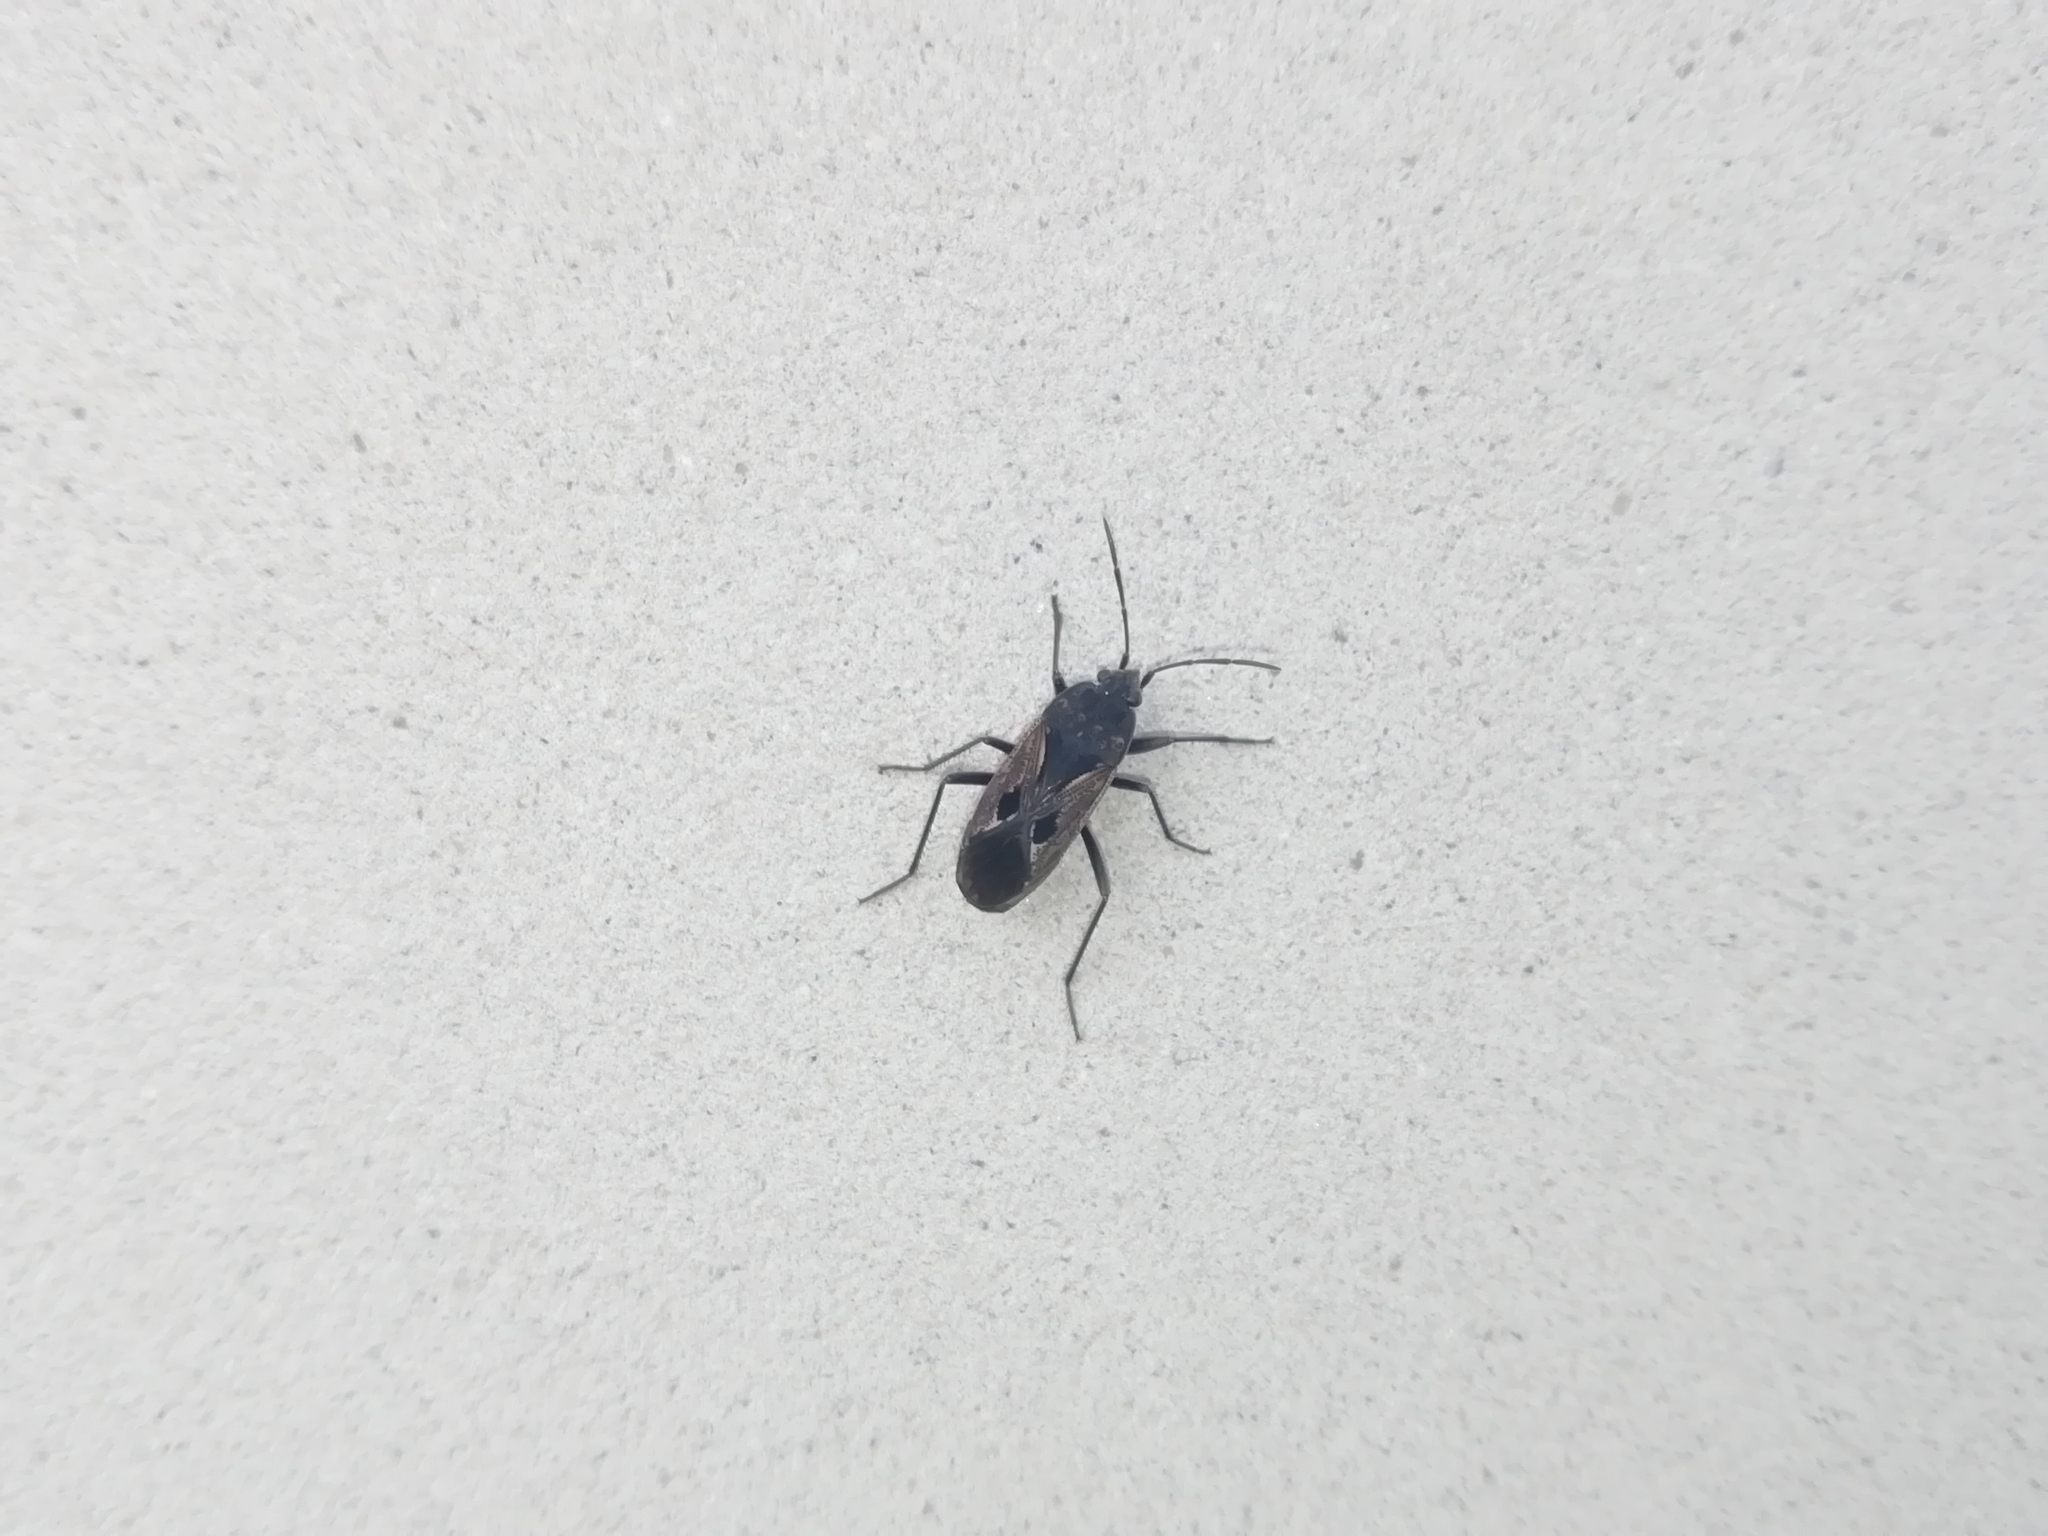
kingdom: Animalia
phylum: Arthropoda
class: Insecta
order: Hemiptera
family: Rhyparochromidae
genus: Rhyparochromus
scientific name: Rhyparochromus pini
